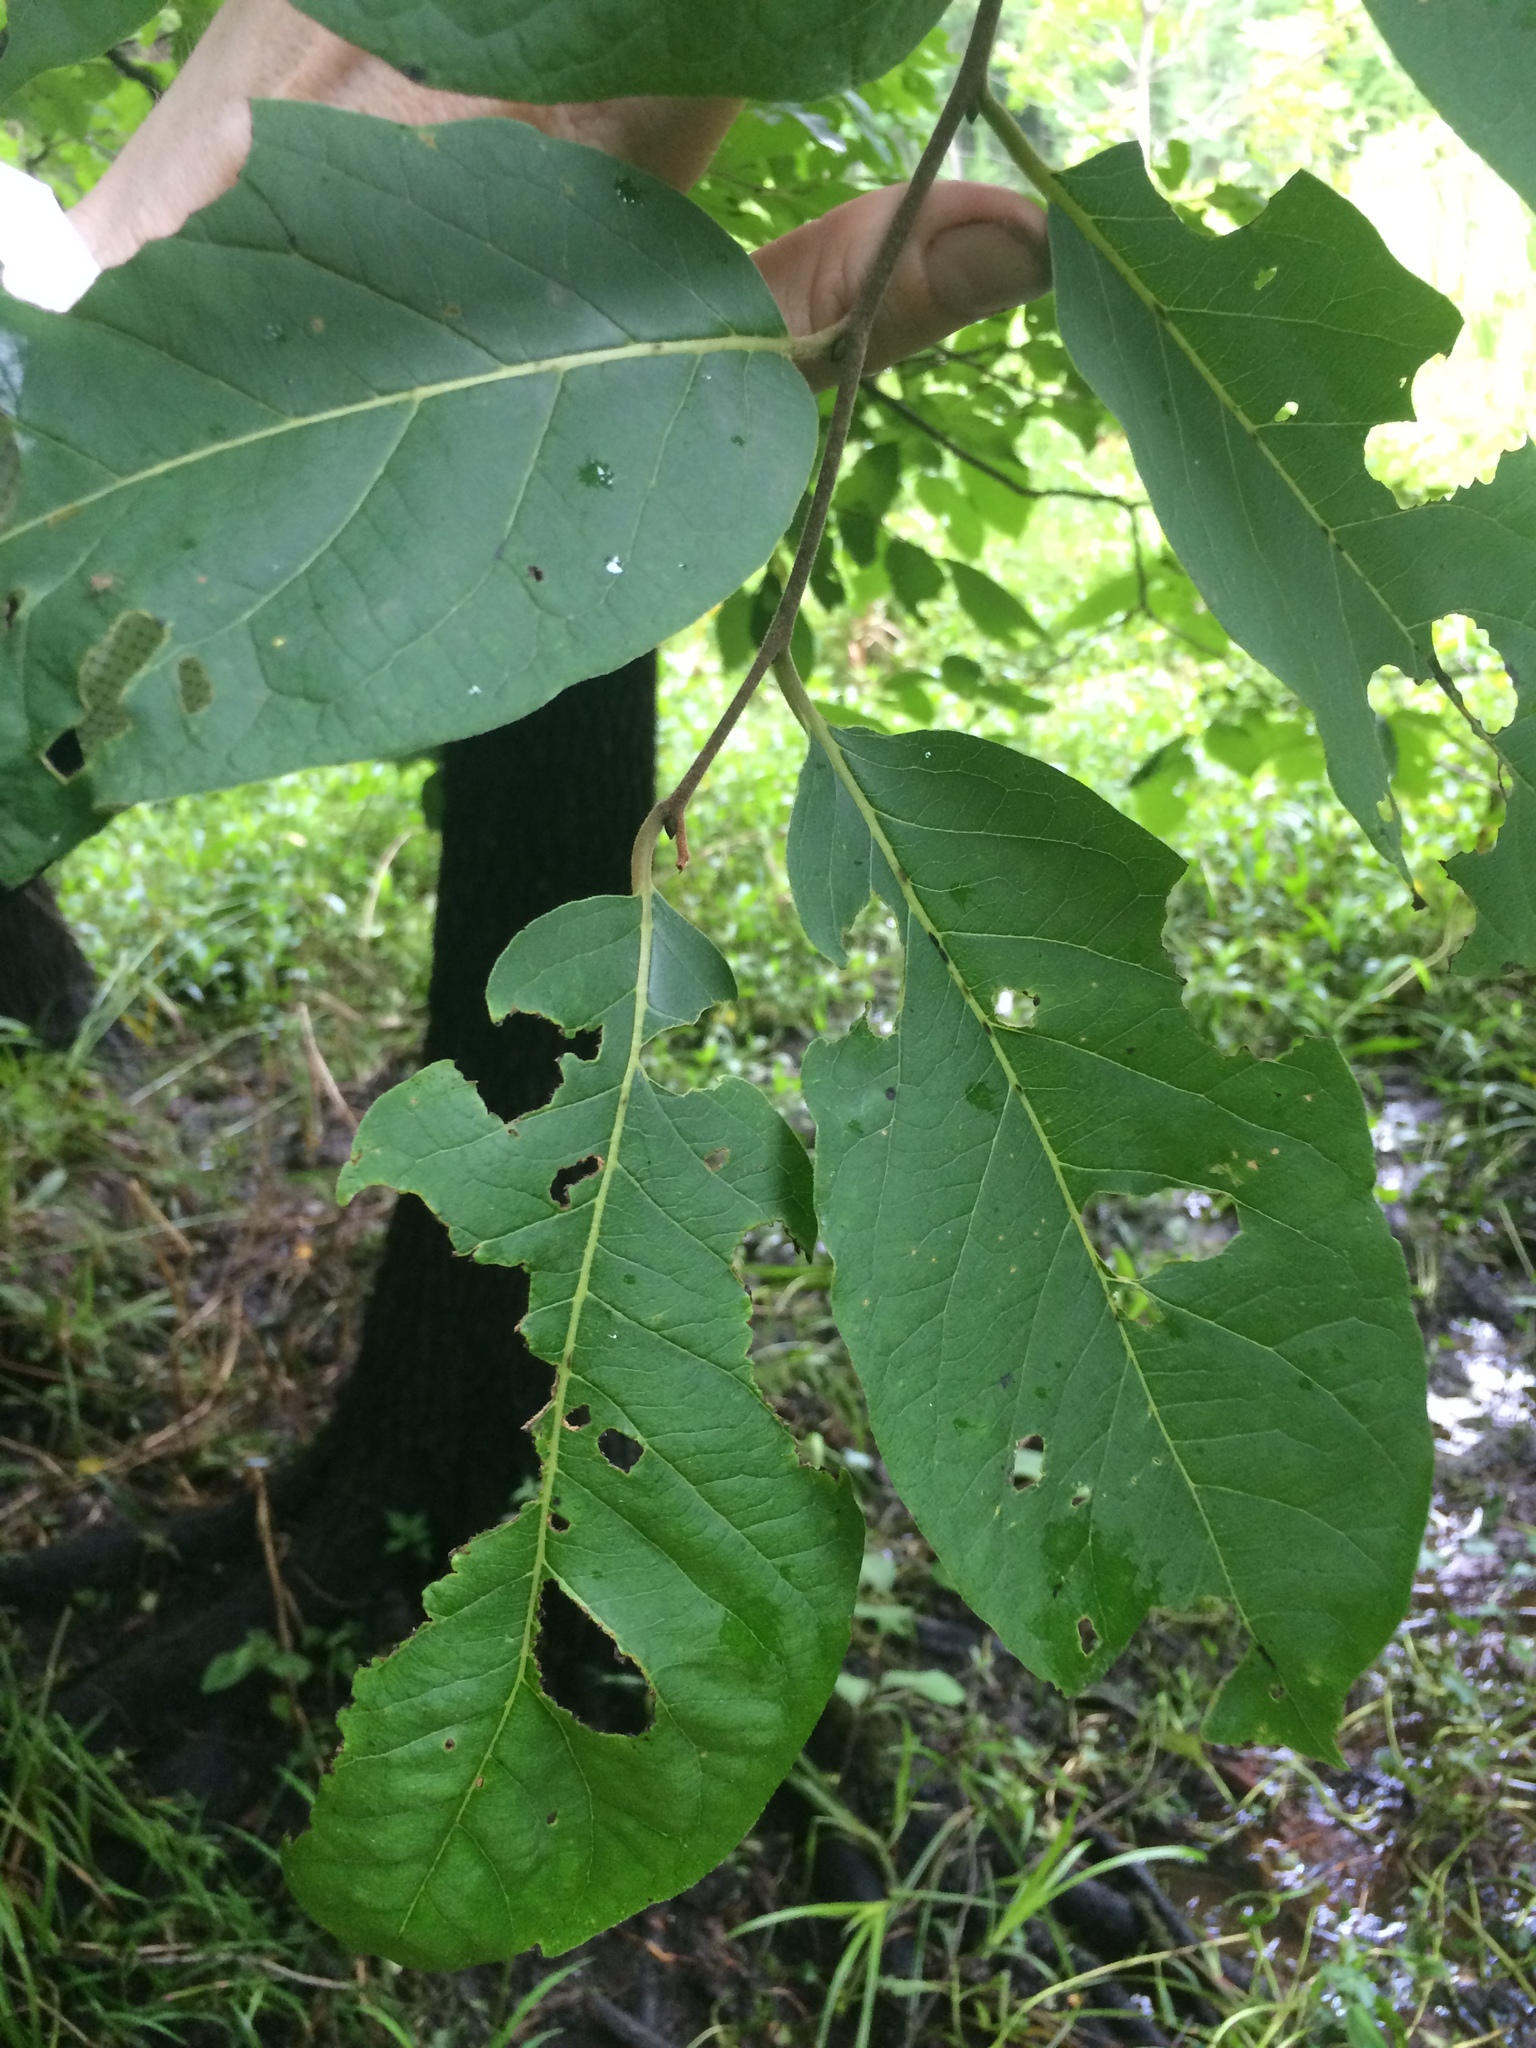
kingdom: Plantae
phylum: Tracheophyta
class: Magnoliopsida
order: Ericales
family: Ebenaceae
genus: Diospyros
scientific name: Diospyros virginiana
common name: Persimmon
